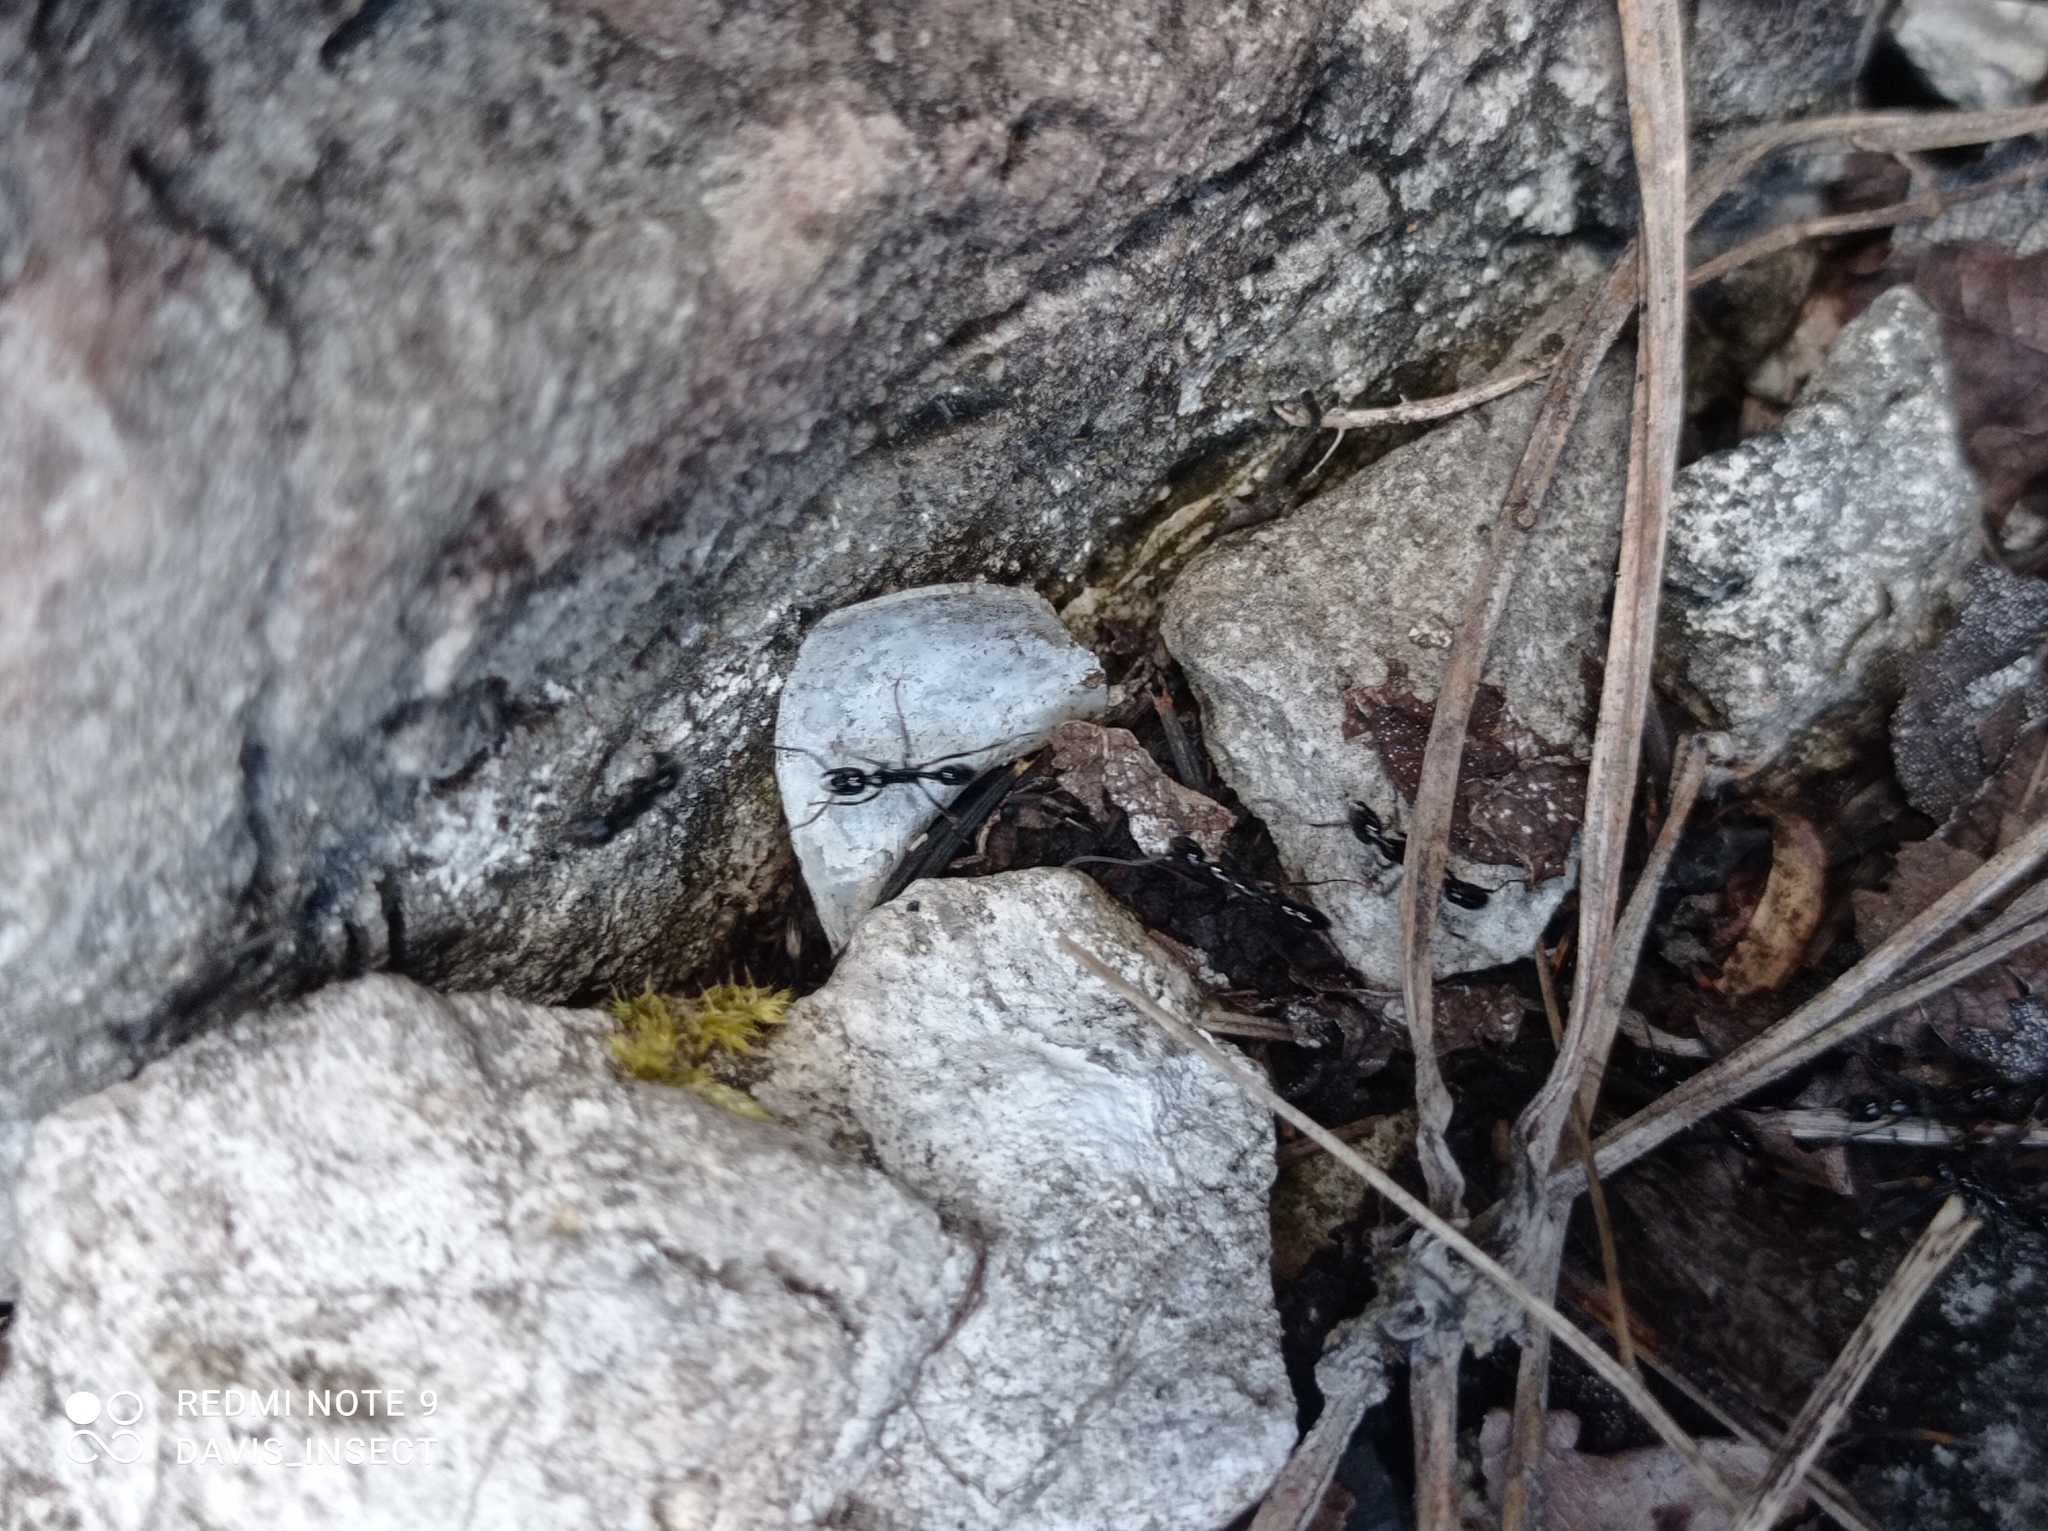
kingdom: Animalia
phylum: Arthropoda
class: Insecta
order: Hymenoptera
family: Formicidae
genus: Leptogenys
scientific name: Leptogenys diminuta
